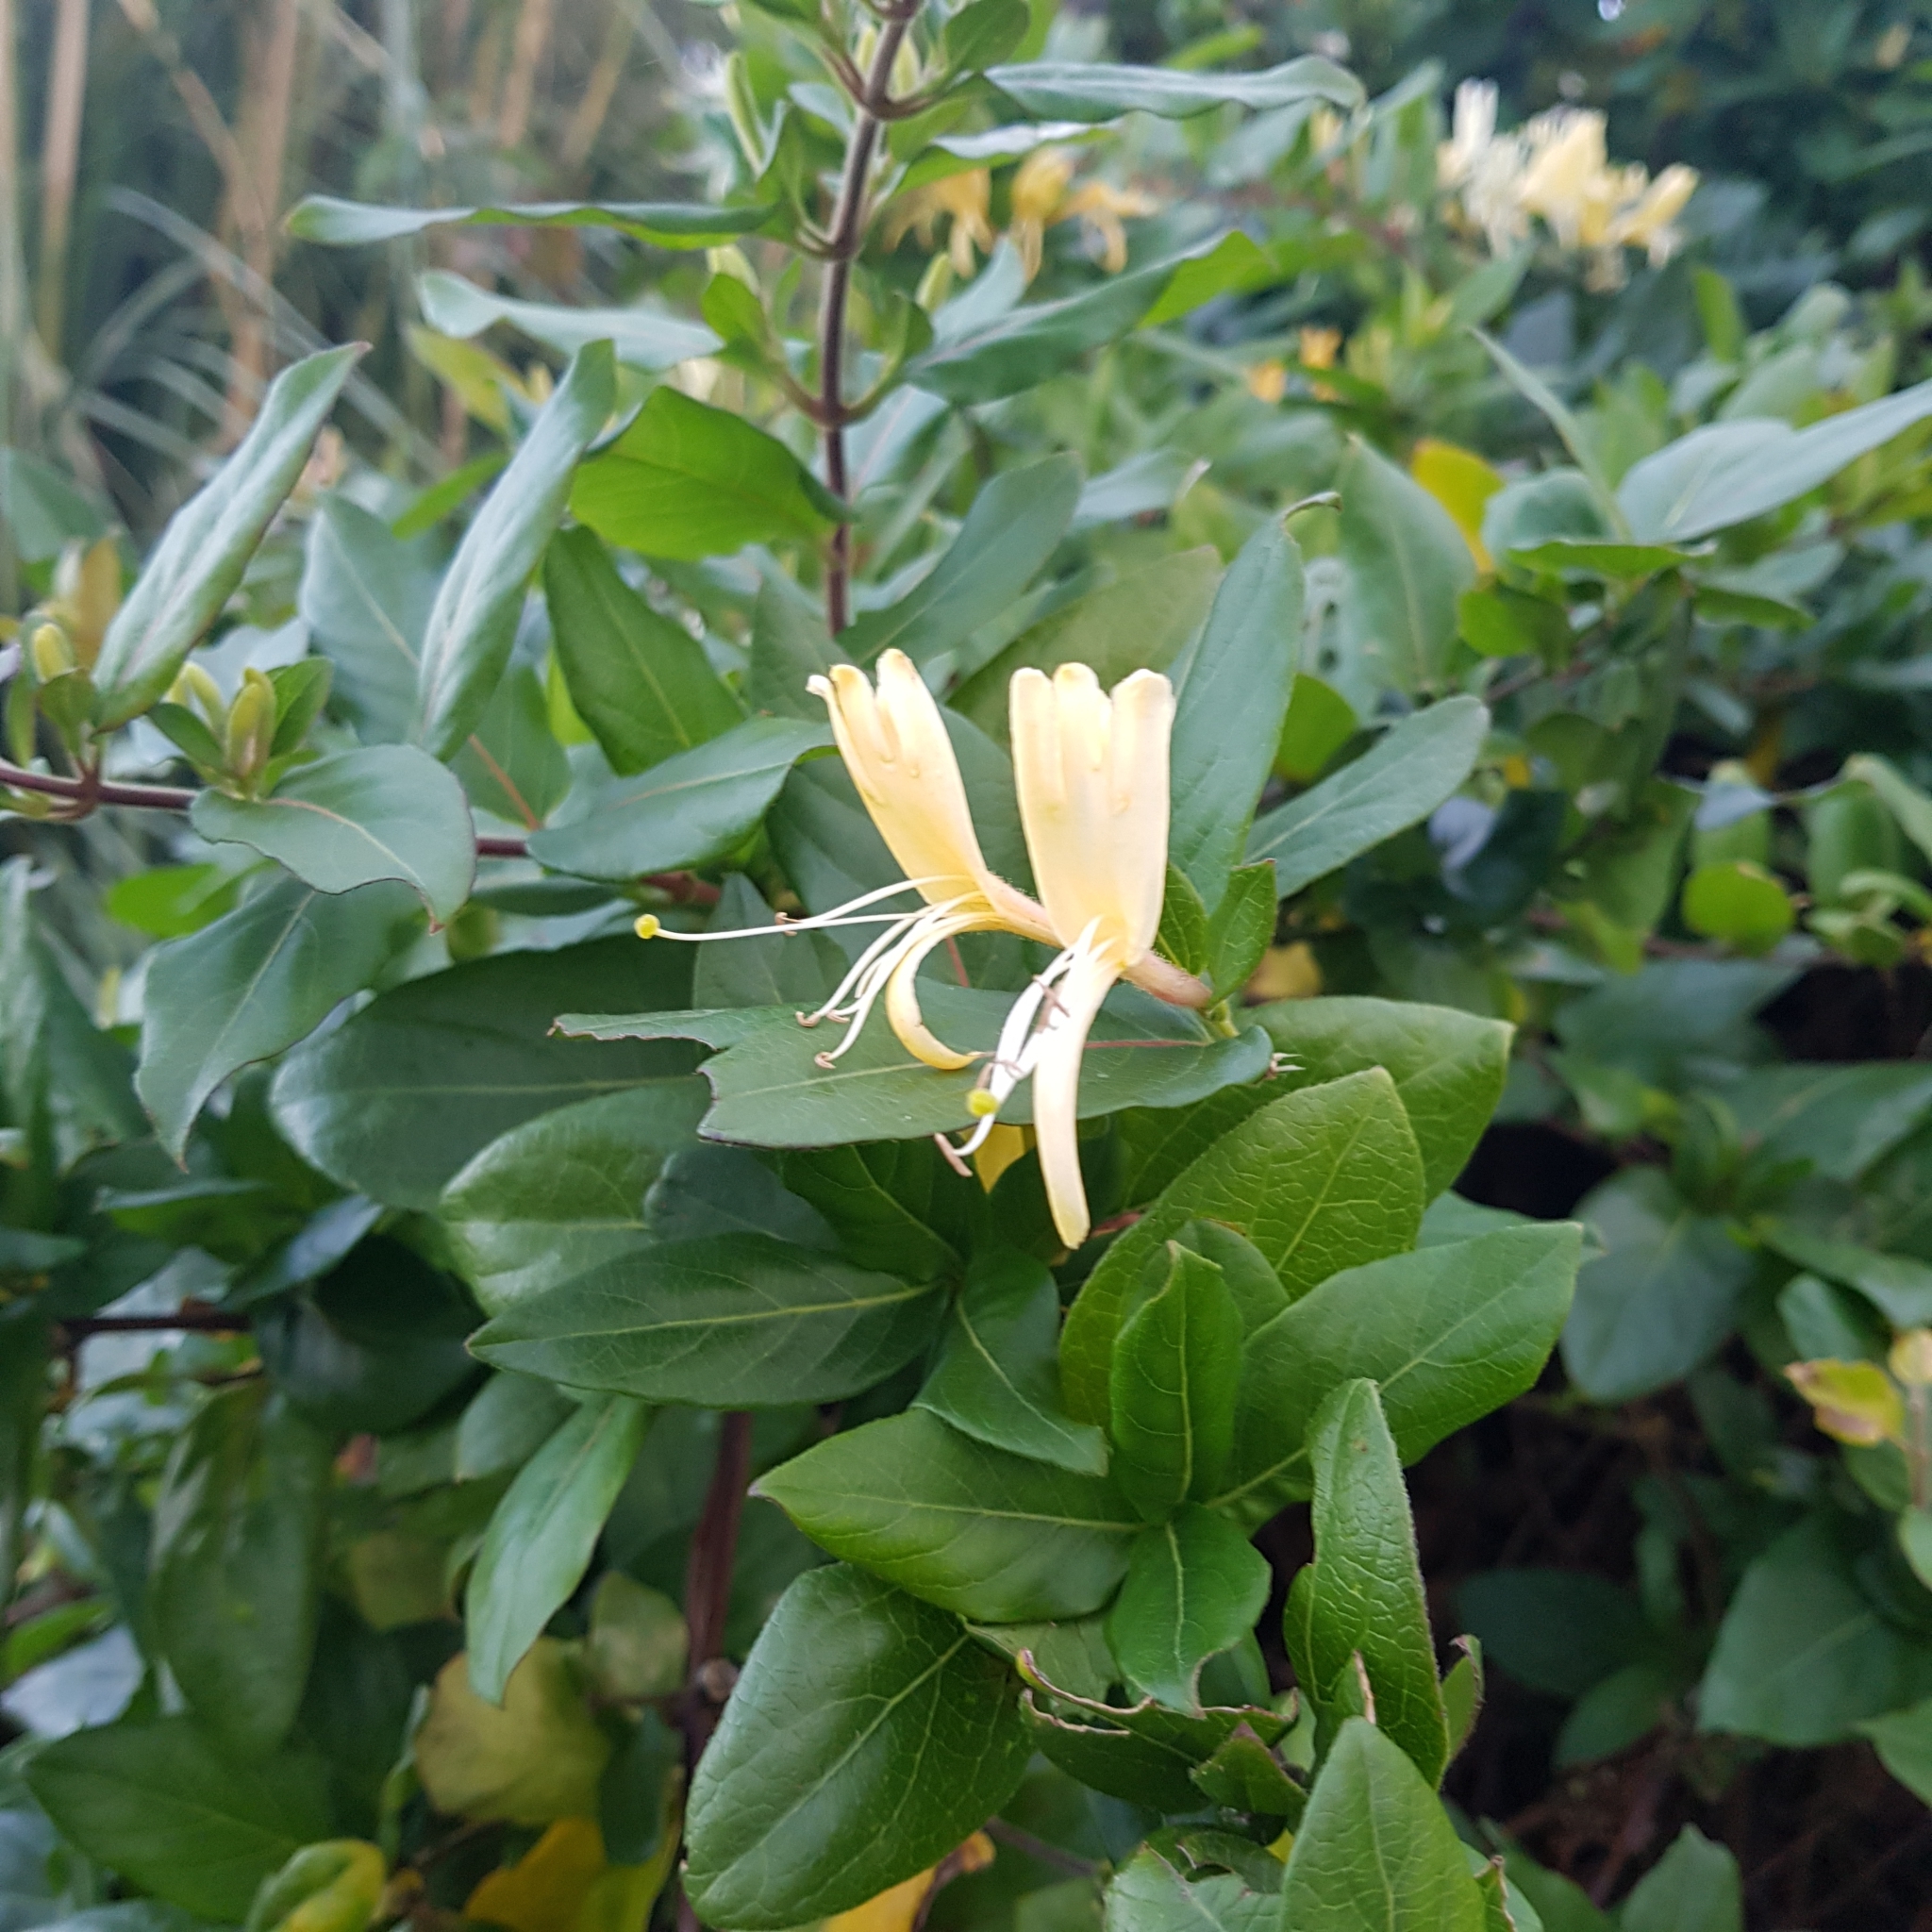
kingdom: Plantae
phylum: Tracheophyta
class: Magnoliopsida
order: Dipsacales
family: Caprifoliaceae
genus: Lonicera
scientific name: Lonicera japonica
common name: Japanese honeysuckle
